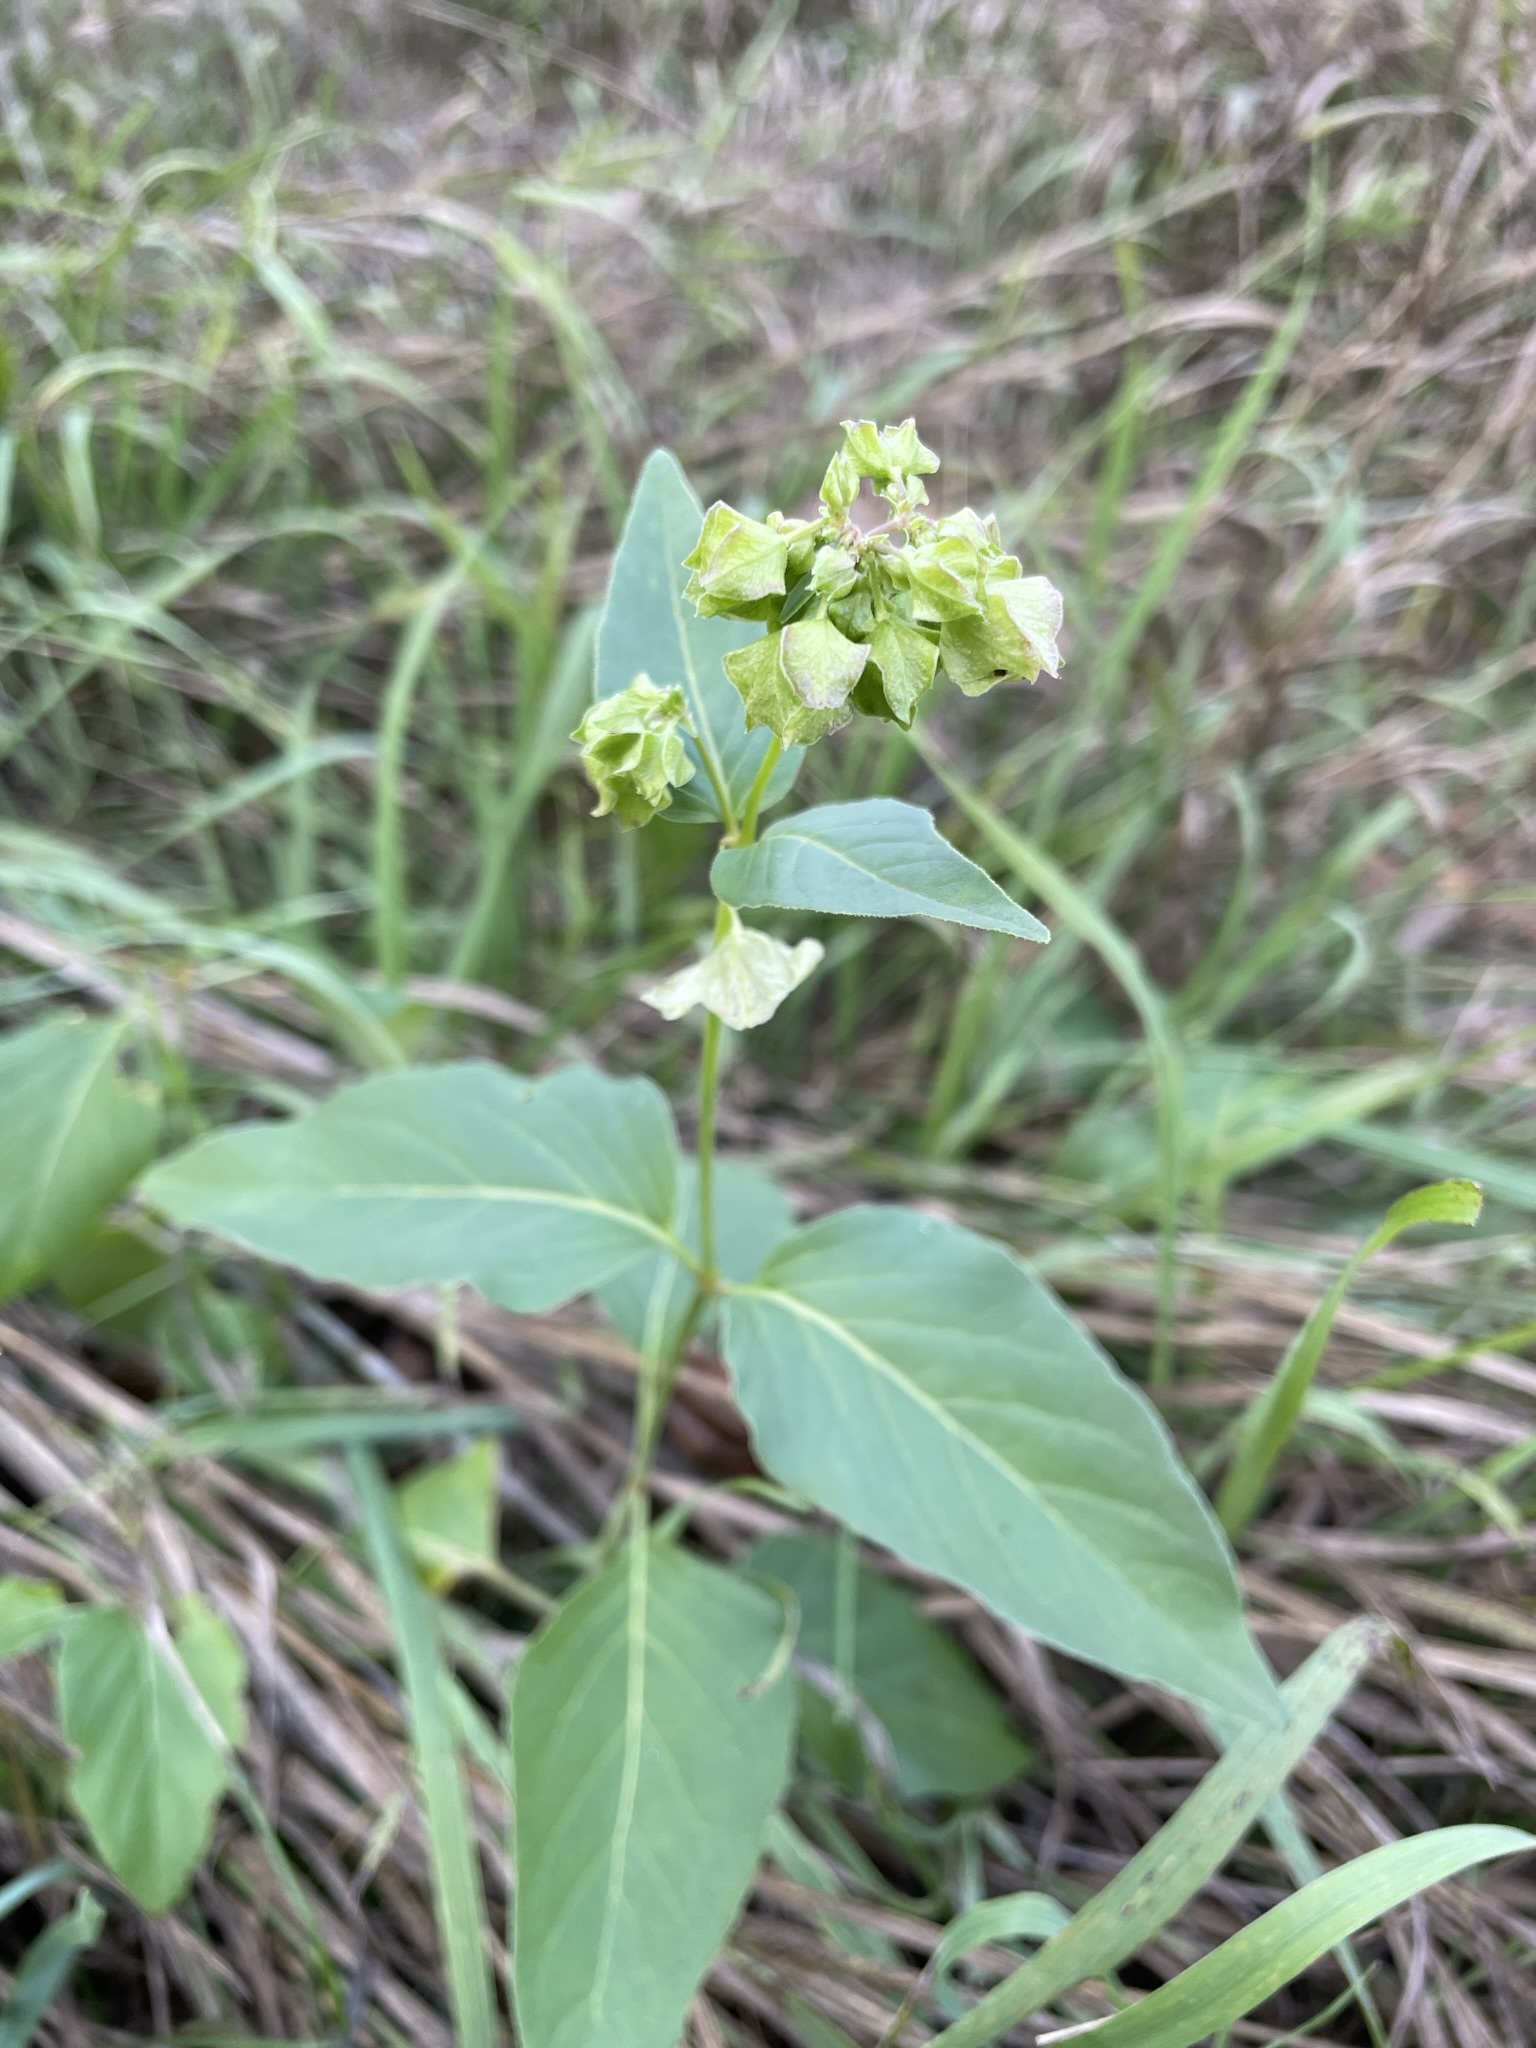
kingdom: Plantae
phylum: Tracheophyta
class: Magnoliopsida
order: Caryophyllales
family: Nyctaginaceae
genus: Mirabilis
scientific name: Mirabilis nyctaginea
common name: Umbrella wort
